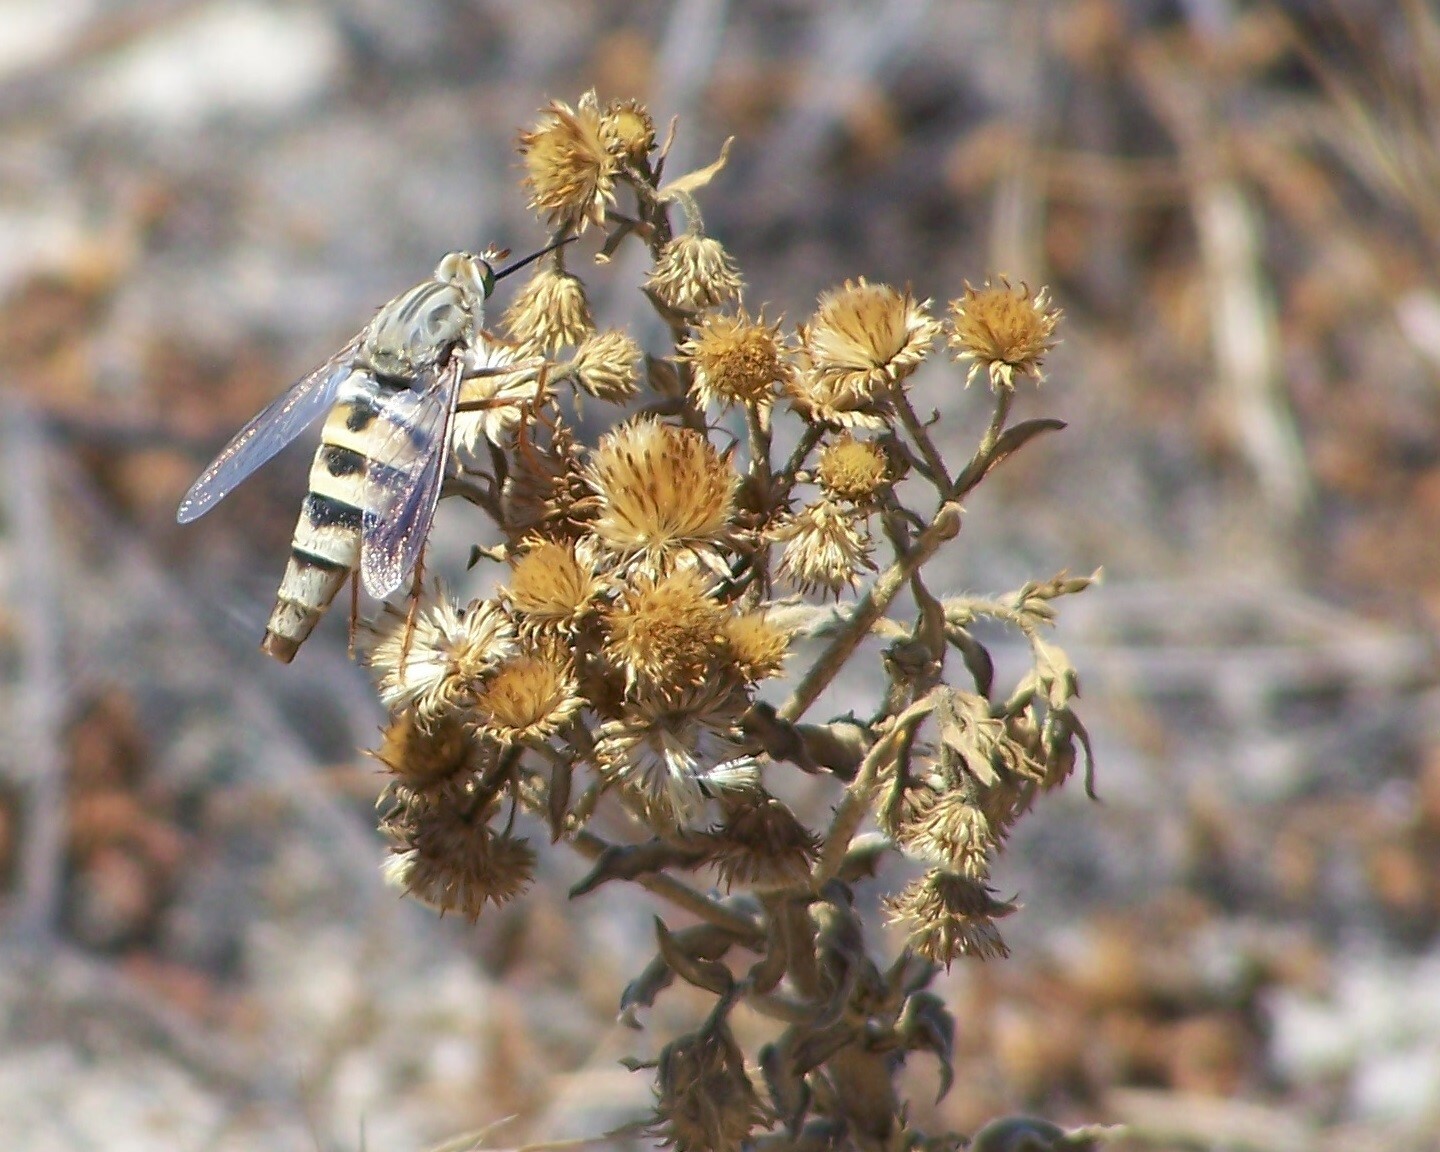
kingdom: Animalia
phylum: Arthropoda
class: Insecta
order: Diptera
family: Mydidae
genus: Rhaphiomidas
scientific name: Rhaphiomidas terminatus
